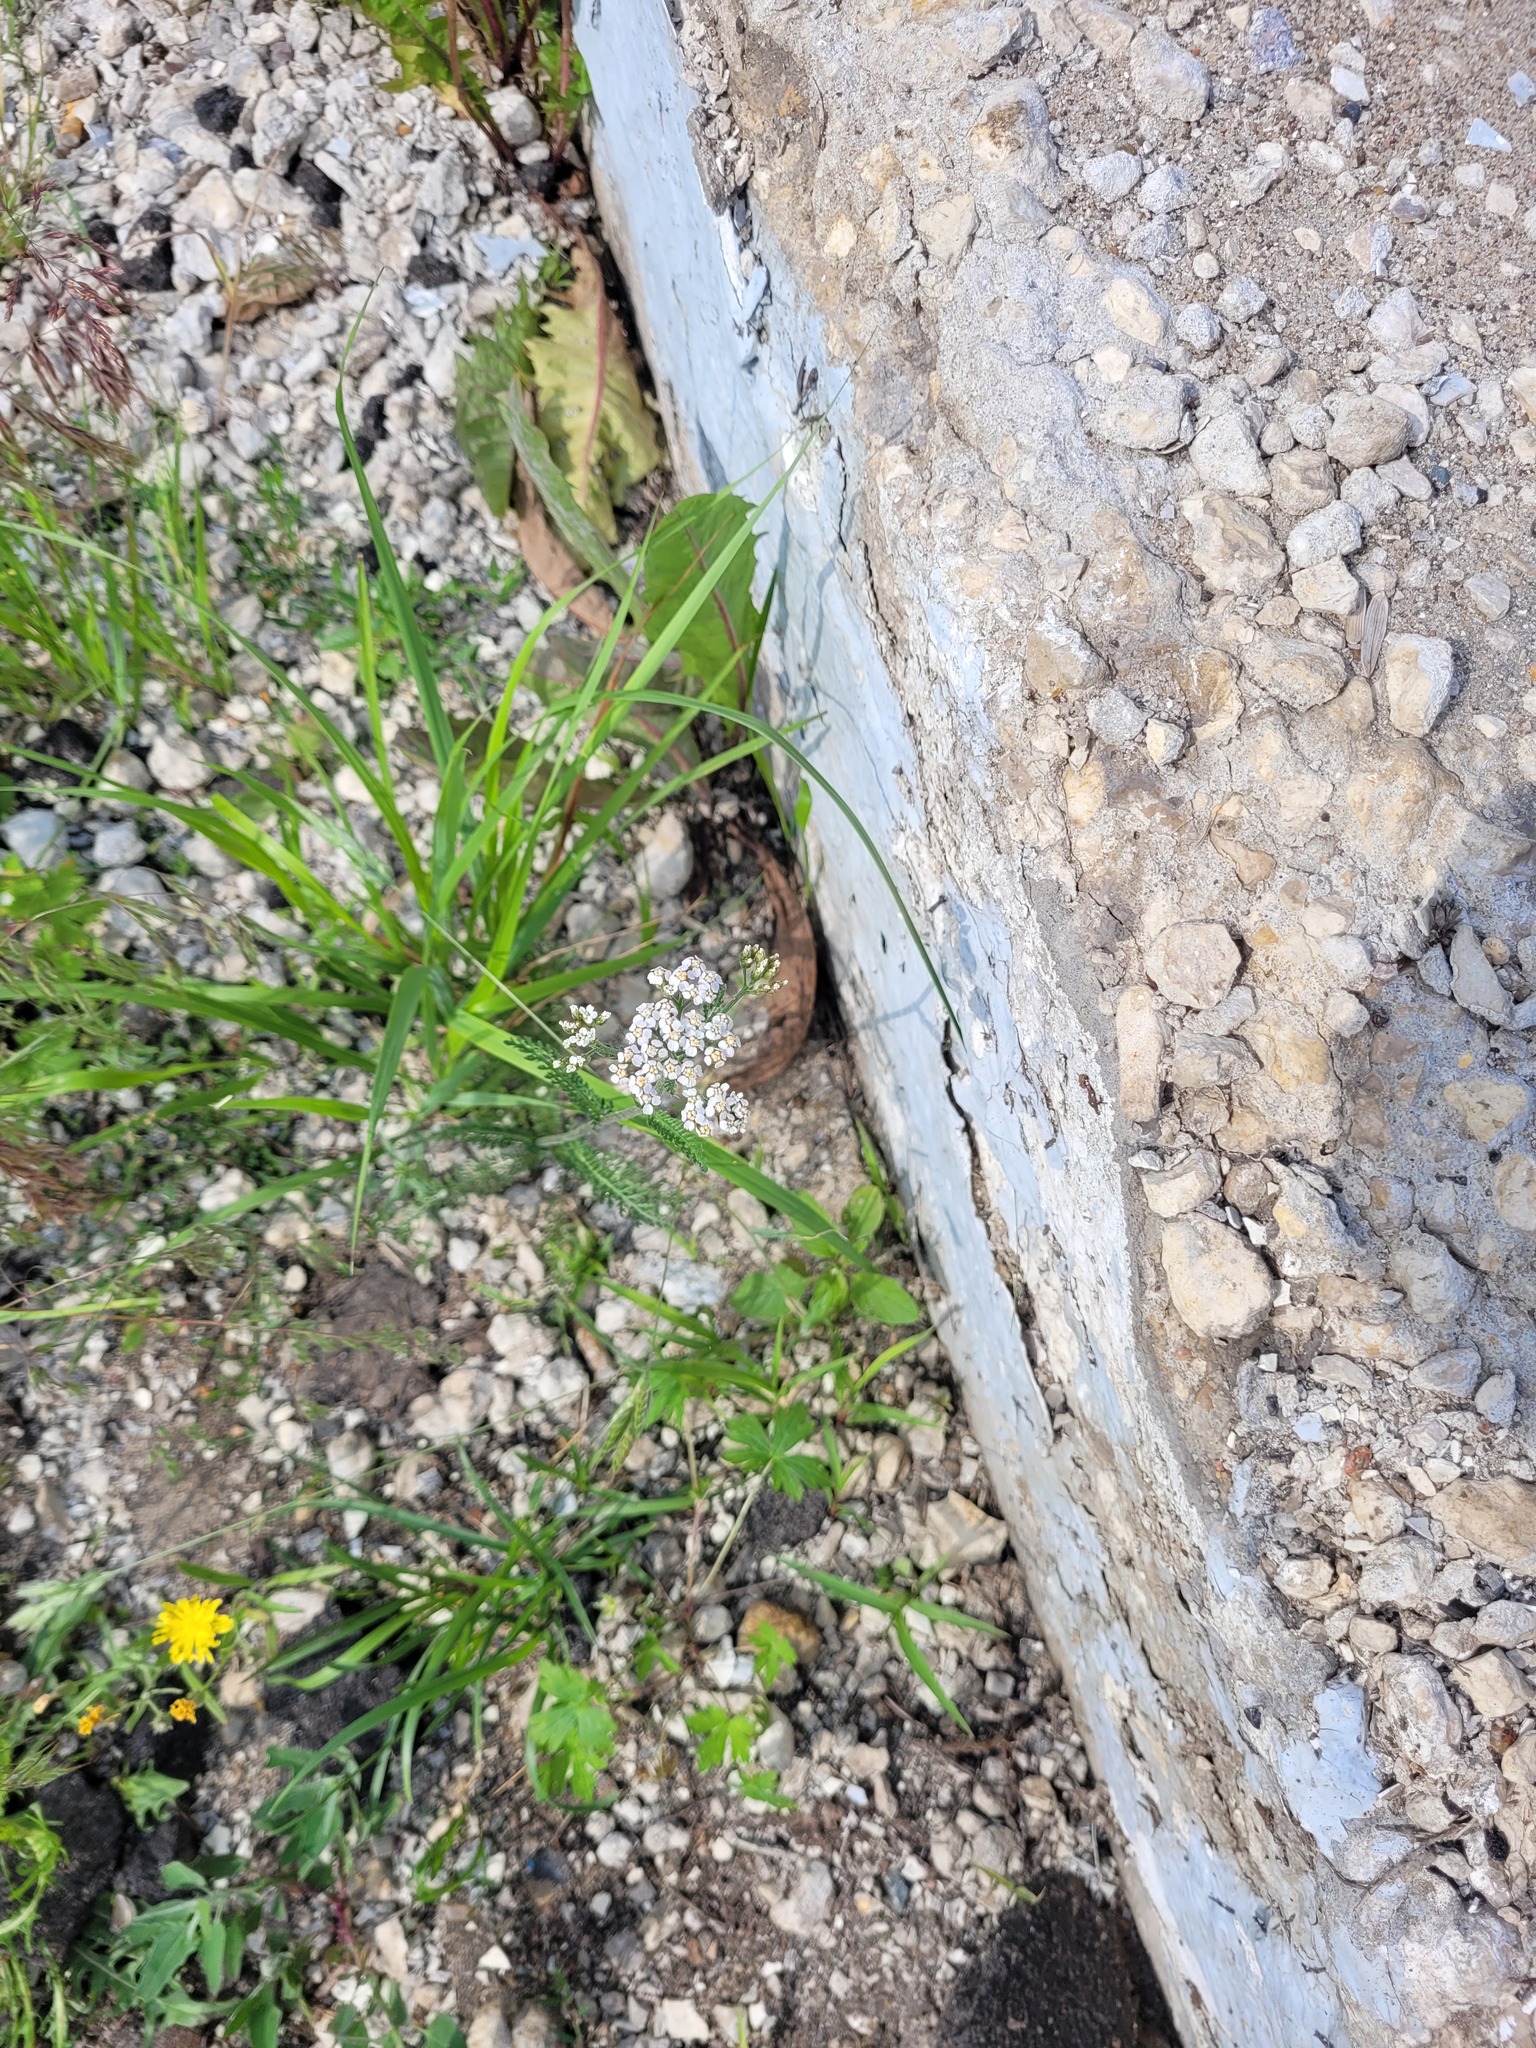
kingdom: Plantae
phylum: Tracheophyta
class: Magnoliopsida
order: Asterales
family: Asteraceae
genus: Achillea
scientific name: Achillea millefolium
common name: Yarrow
